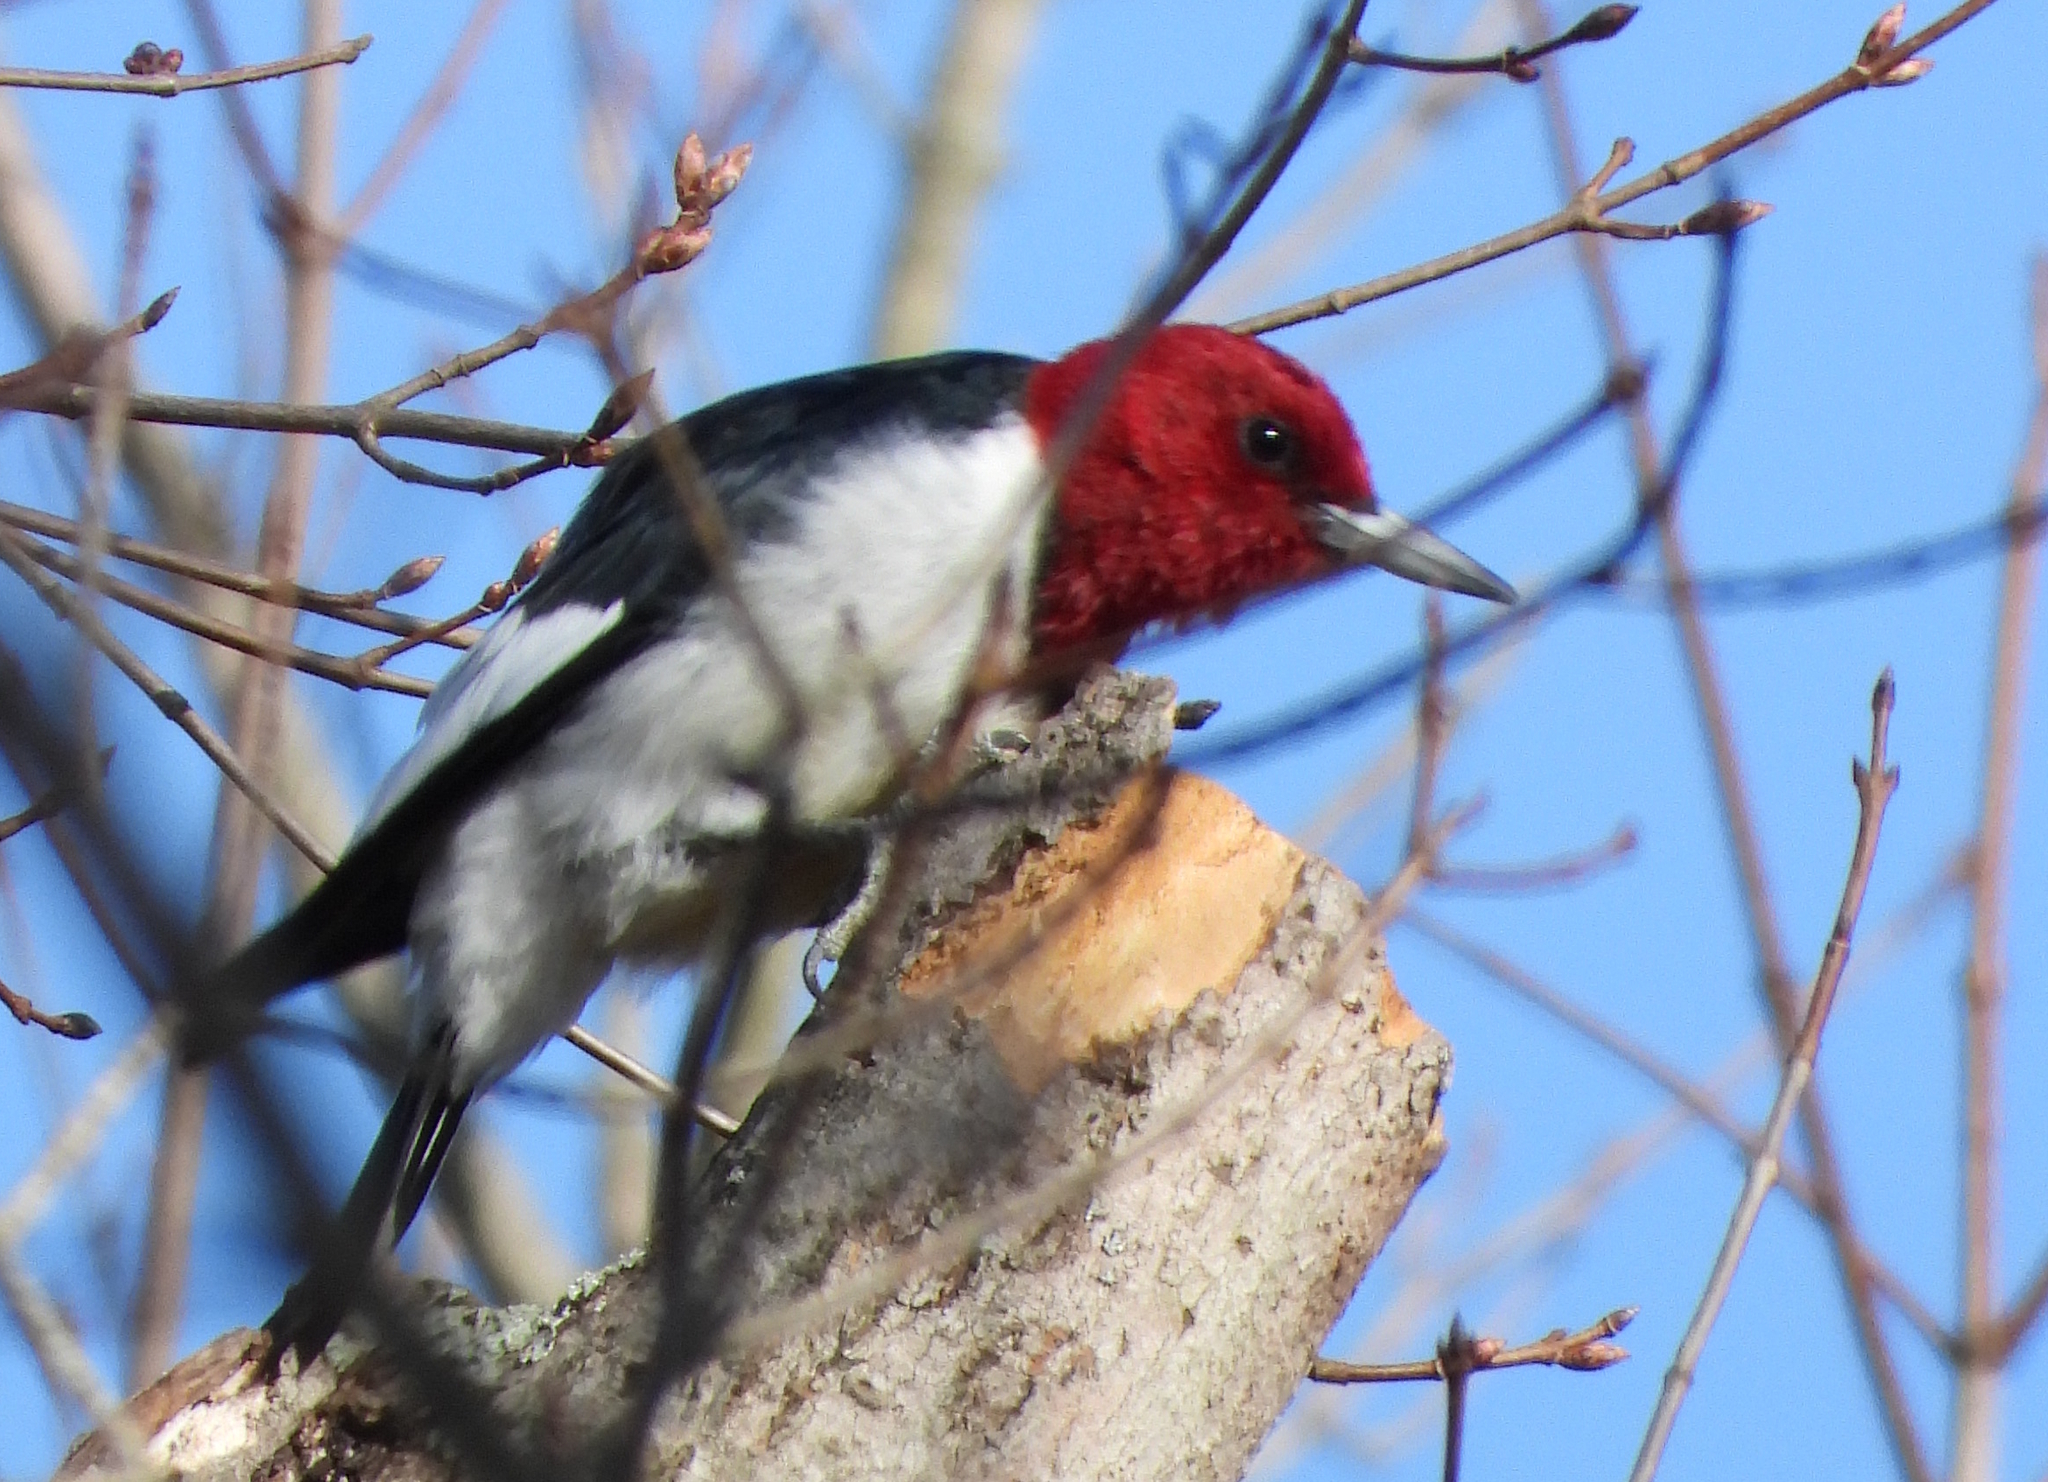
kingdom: Animalia
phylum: Chordata
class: Aves
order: Piciformes
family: Picidae
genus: Melanerpes
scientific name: Melanerpes erythrocephalus
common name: Red-headed woodpecker
